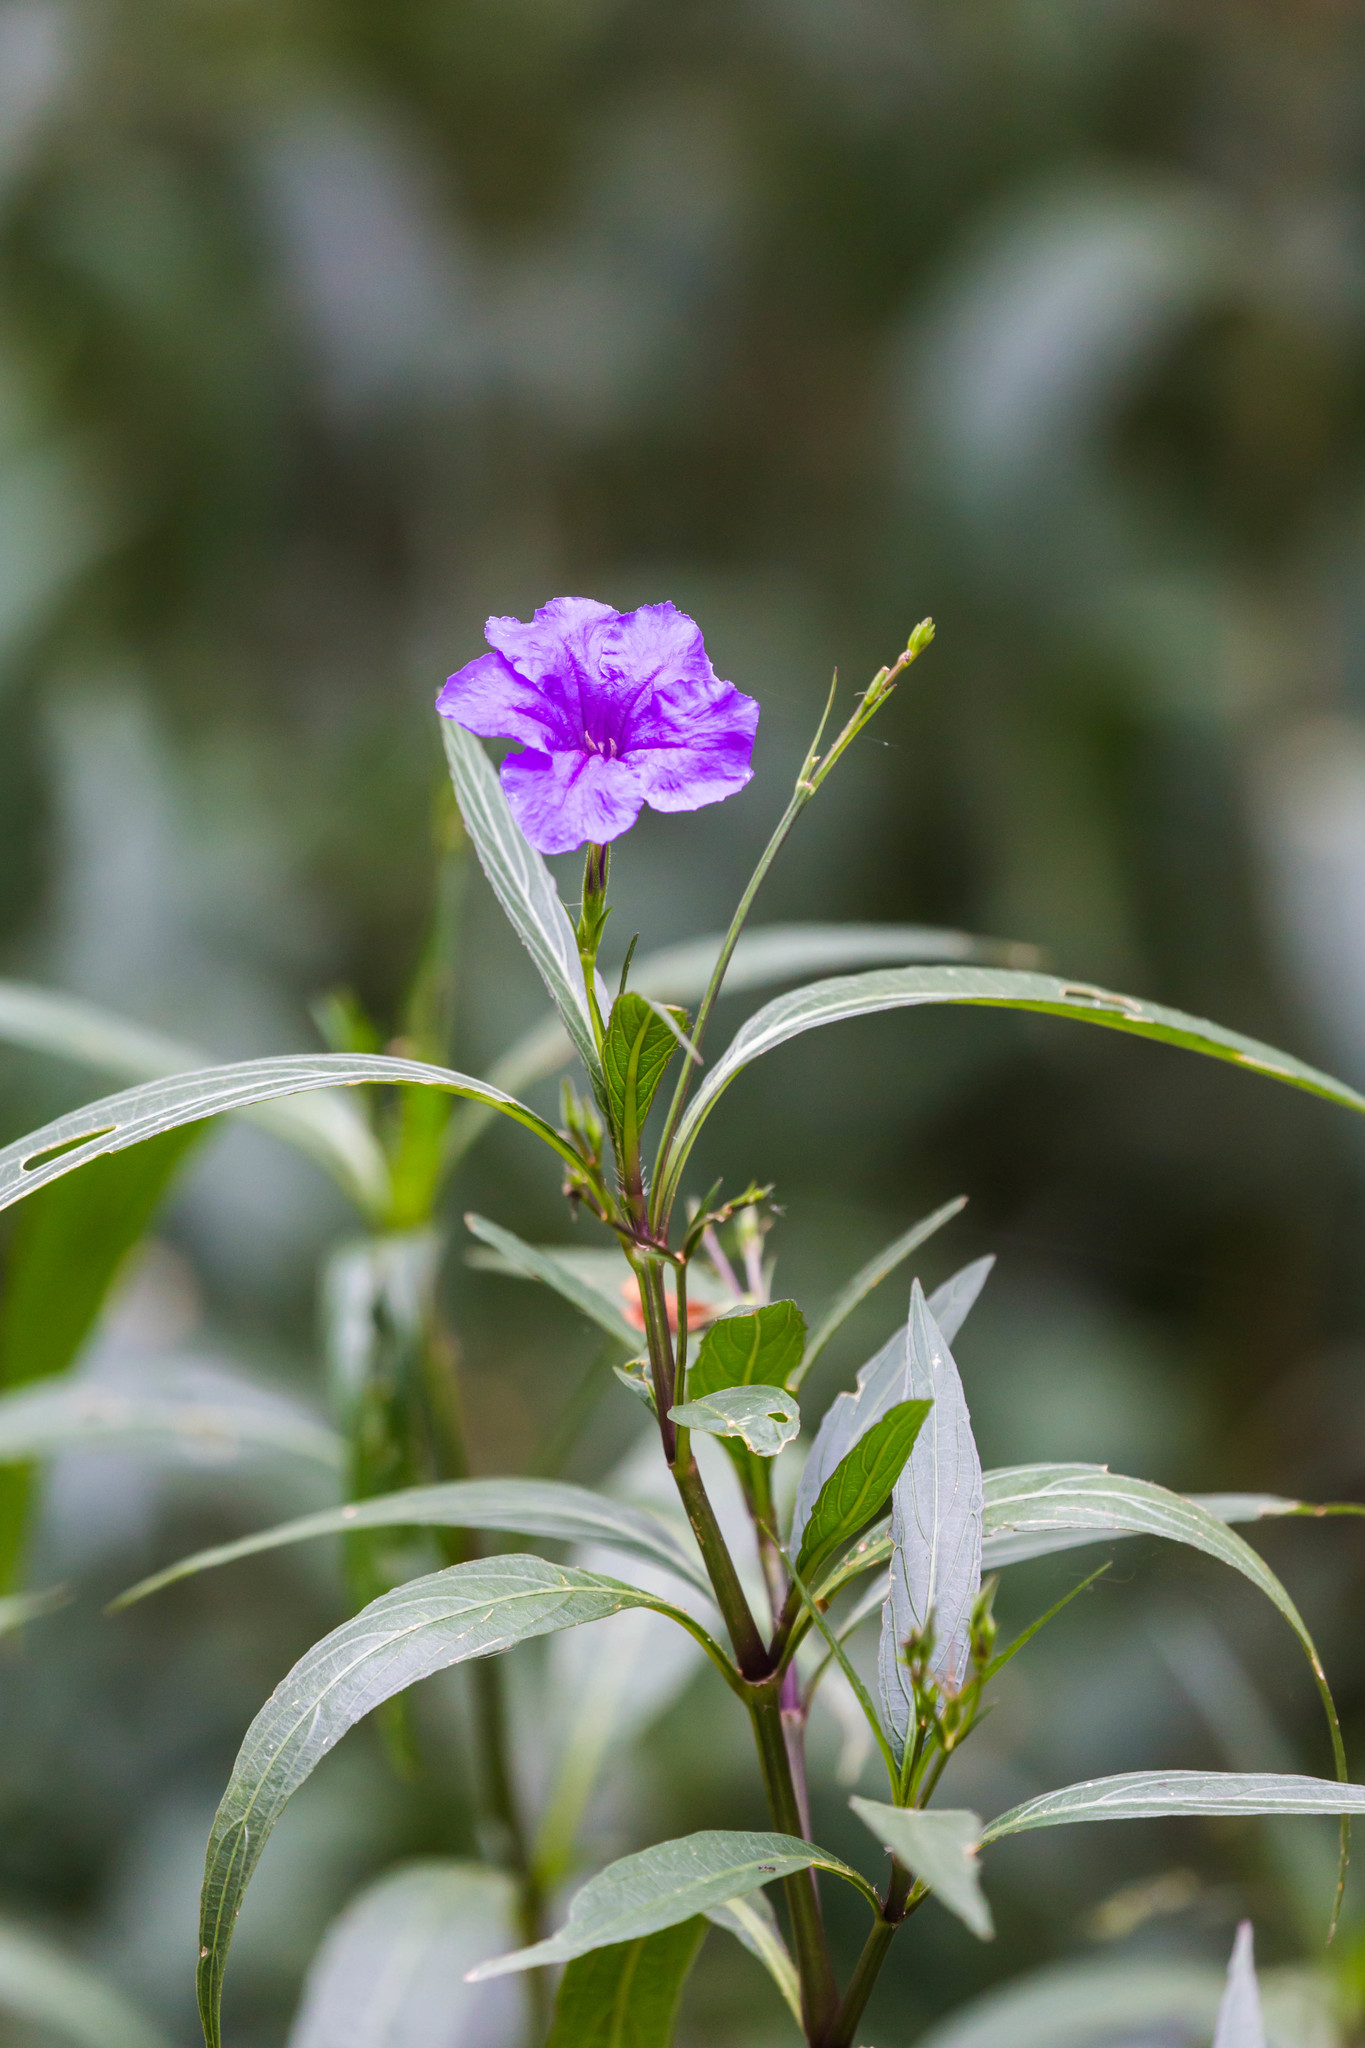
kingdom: Plantae
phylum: Tracheophyta
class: Magnoliopsida
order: Lamiales
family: Acanthaceae
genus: Ruellia
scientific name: Ruellia simplex
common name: Softseed wild petunia
